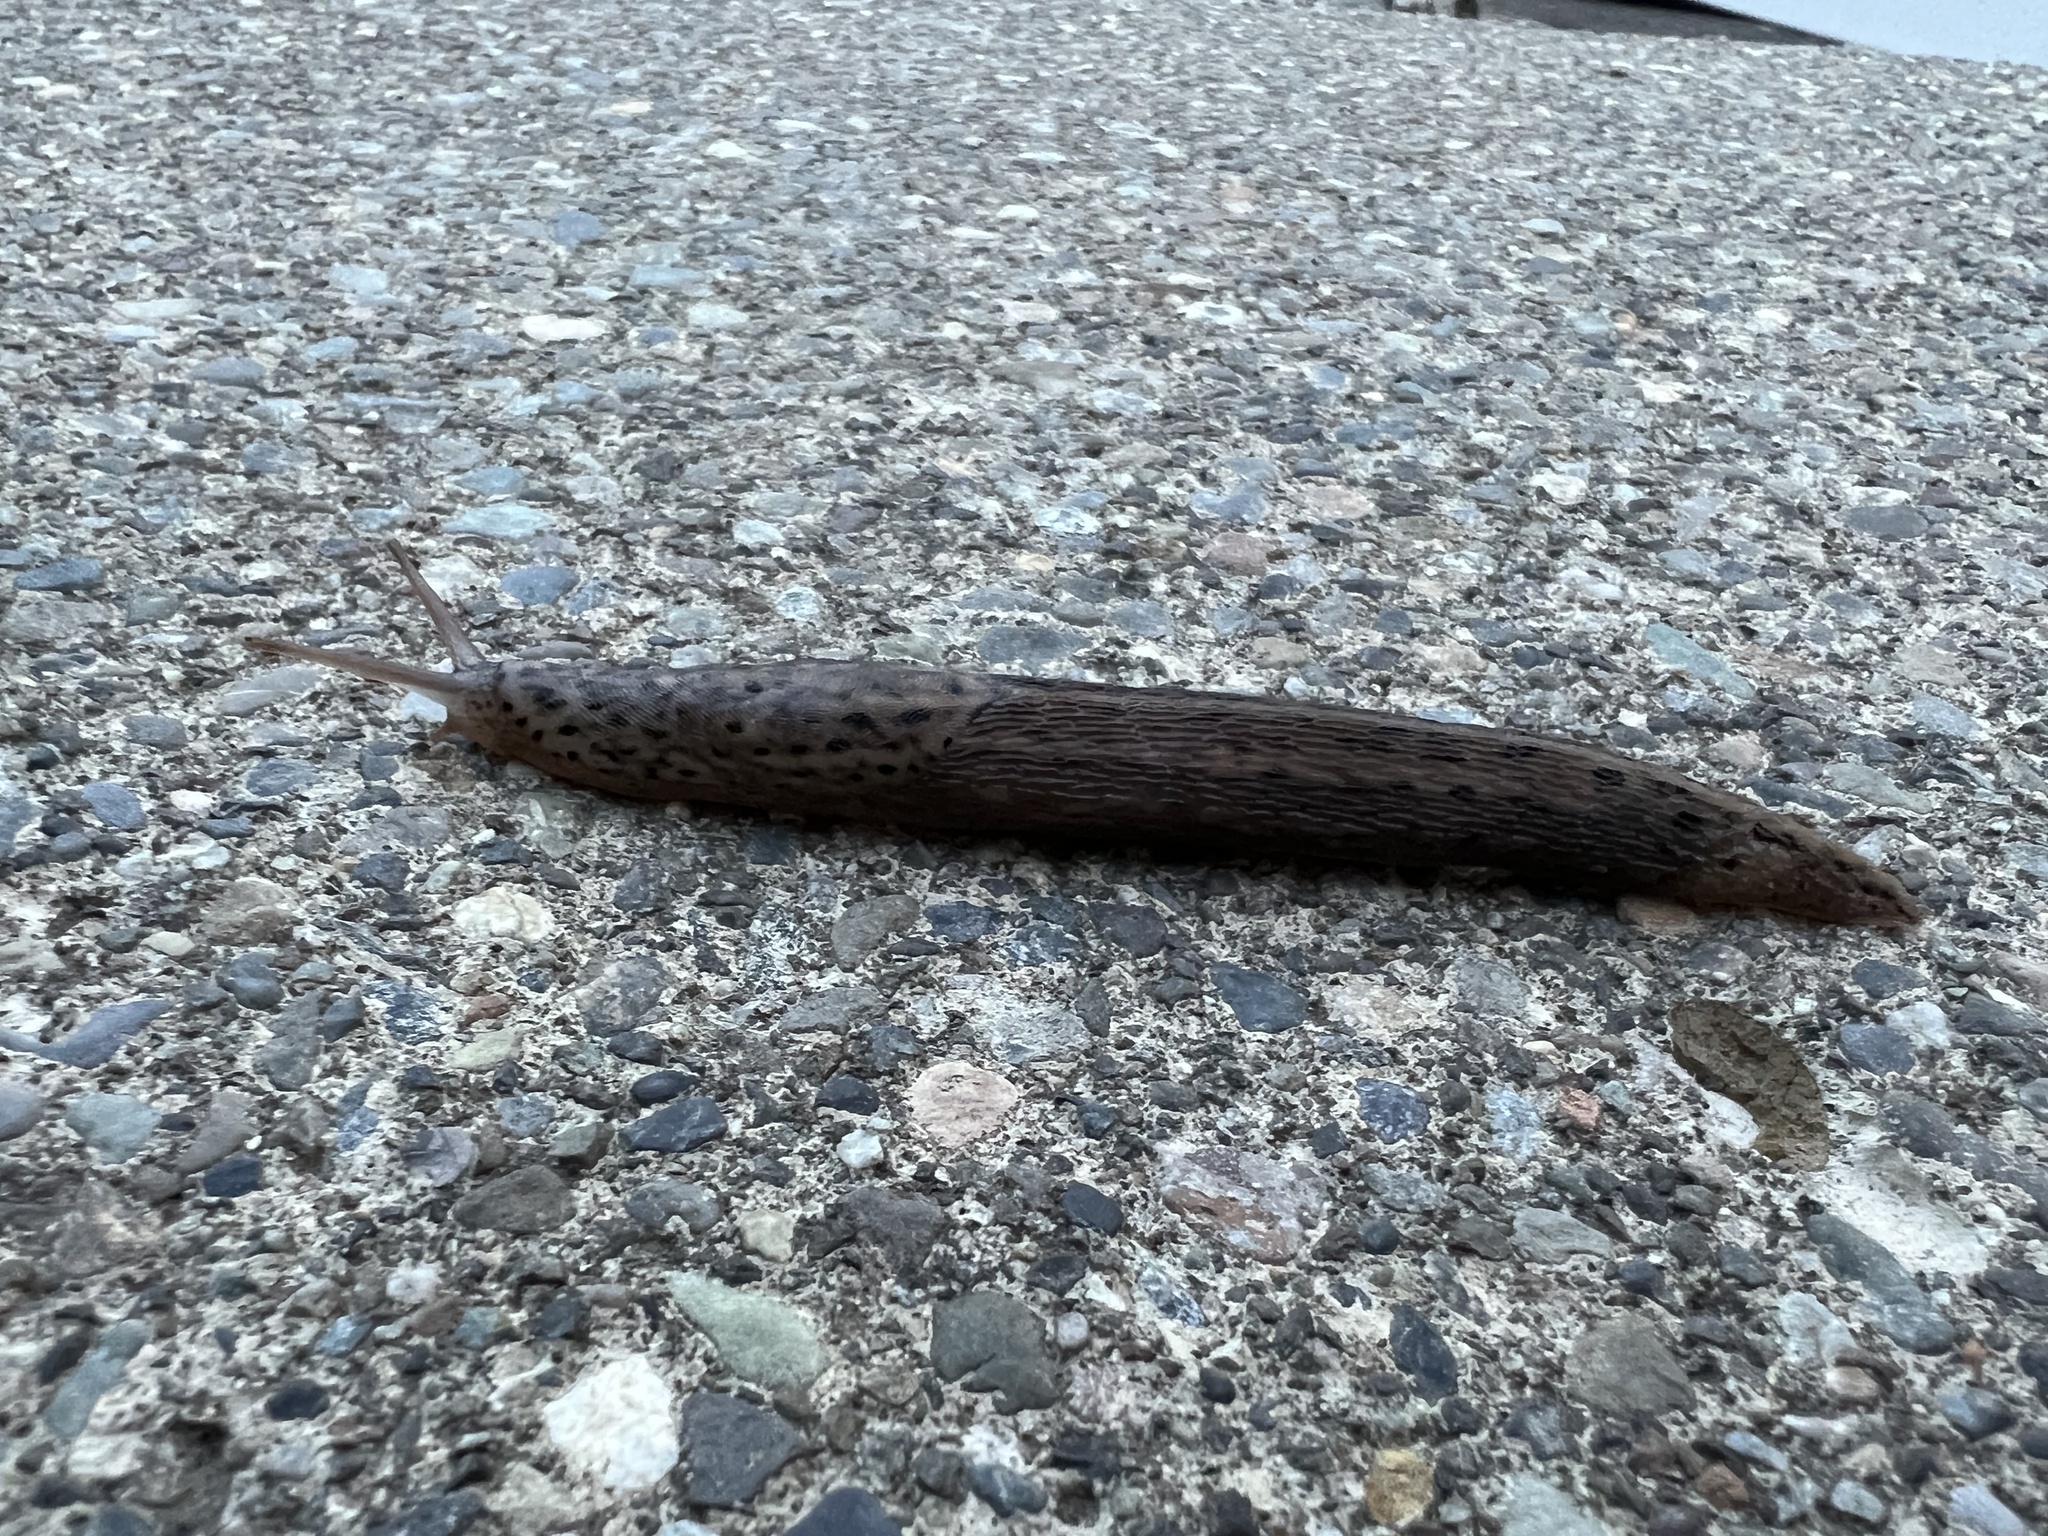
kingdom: Animalia
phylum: Mollusca
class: Gastropoda
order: Stylommatophora
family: Limacidae
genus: Limax
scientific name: Limax maximus
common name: Great grey slug
